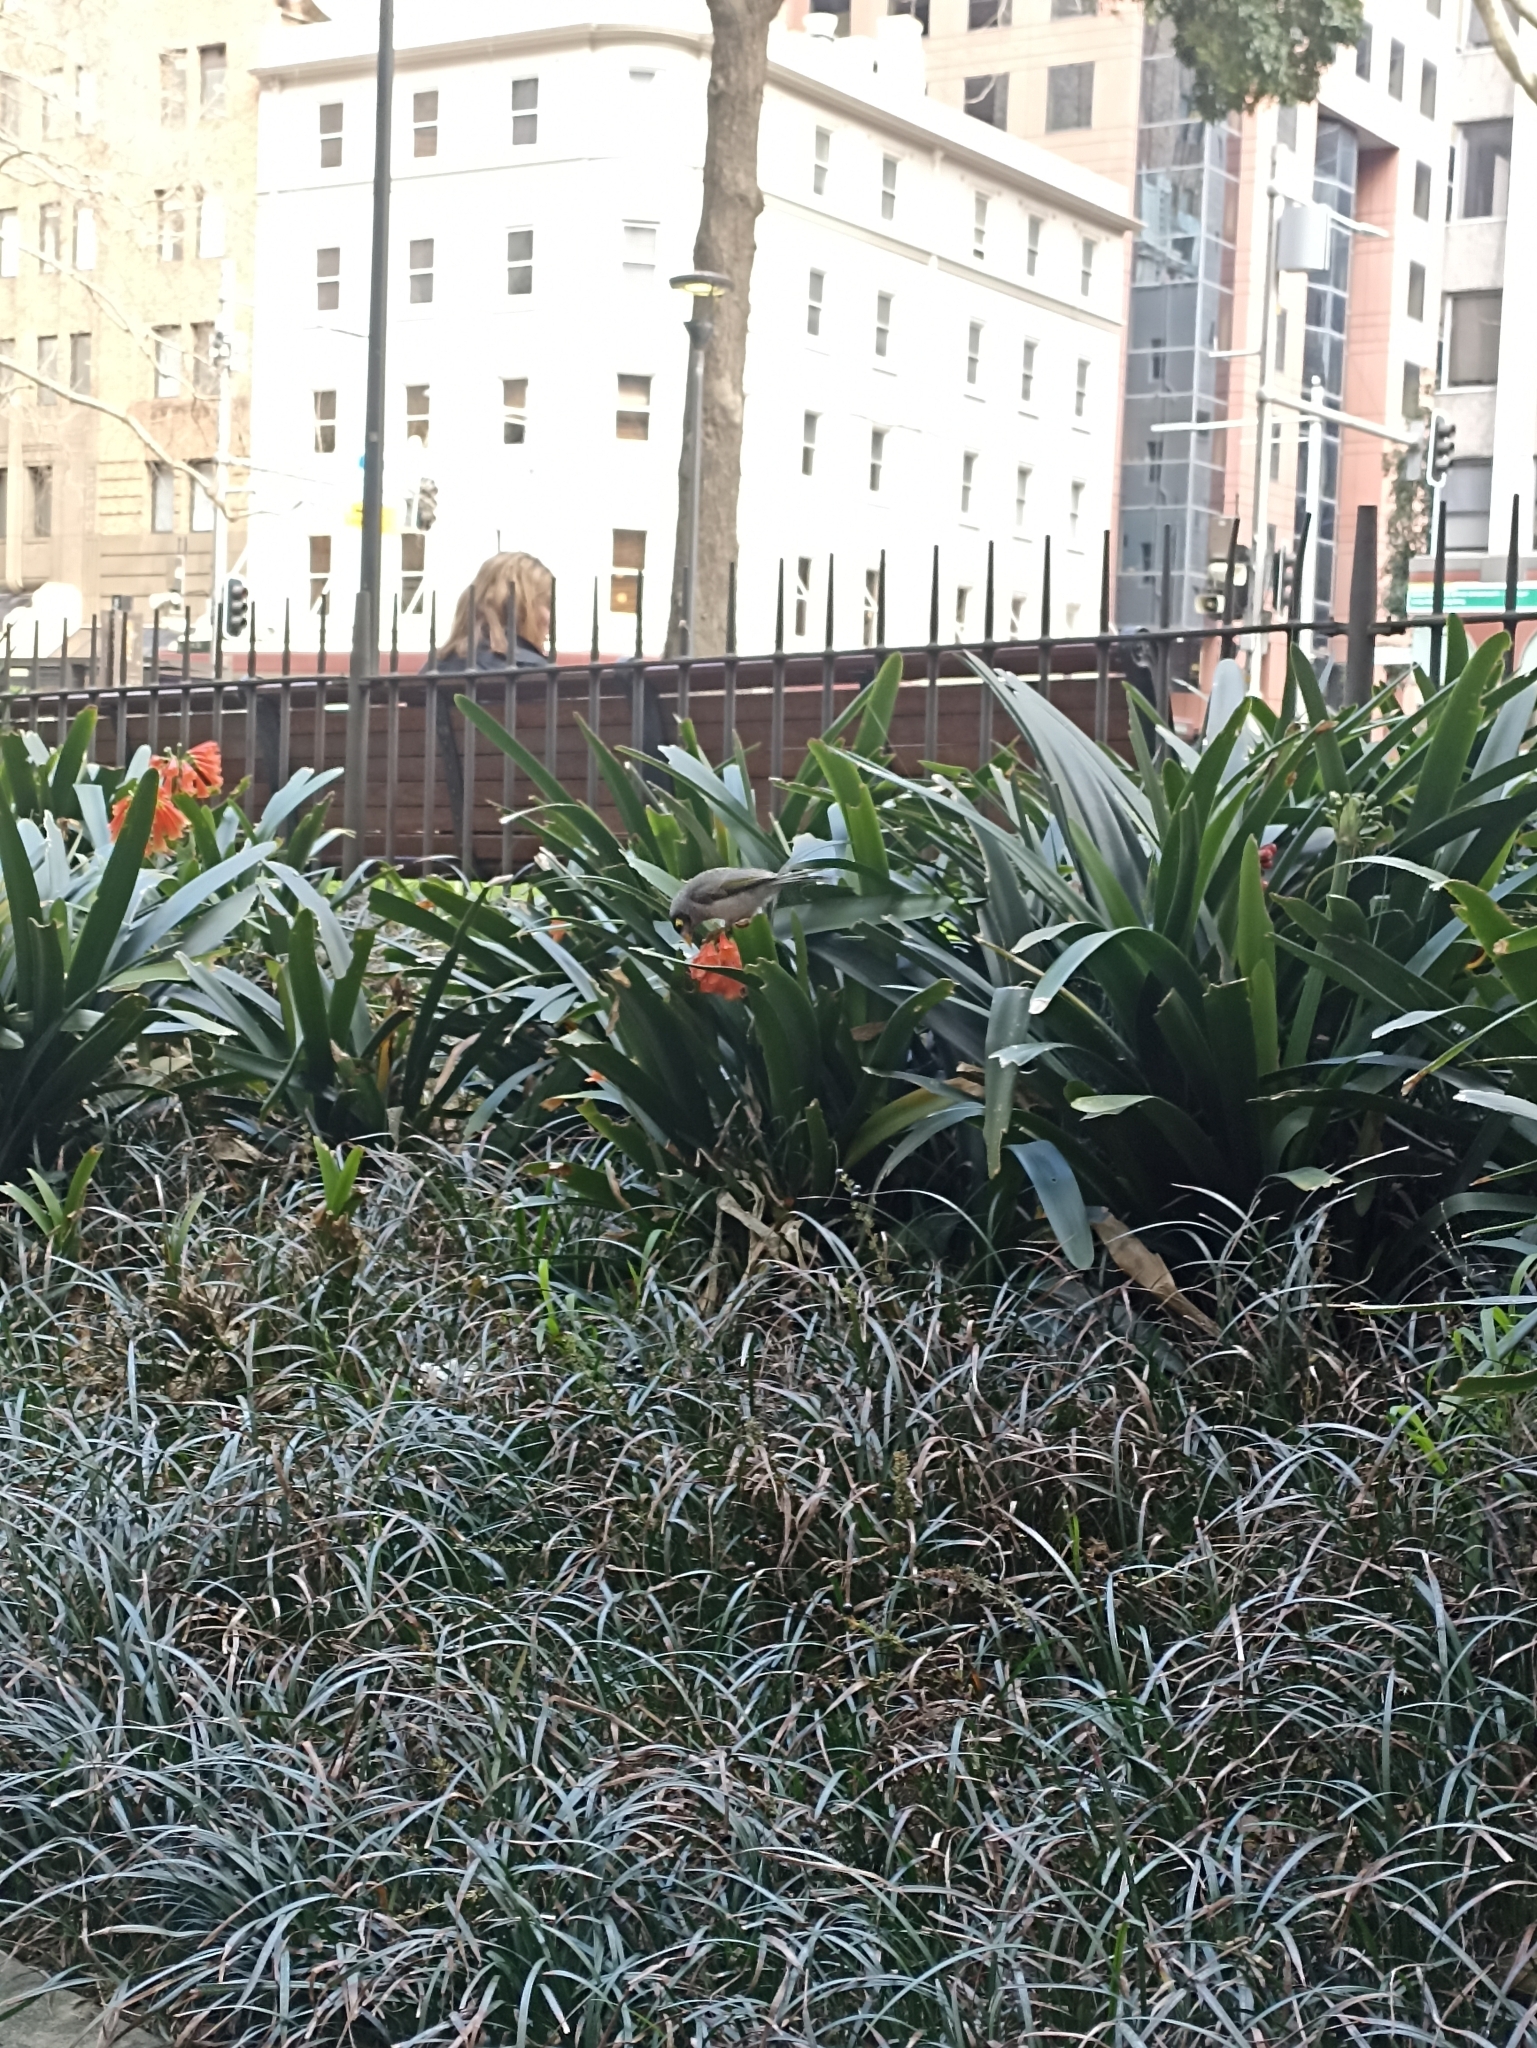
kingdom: Animalia
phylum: Chordata
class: Aves
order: Passeriformes
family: Meliphagidae
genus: Manorina
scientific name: Manorina melanocephala
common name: Noisy miner
